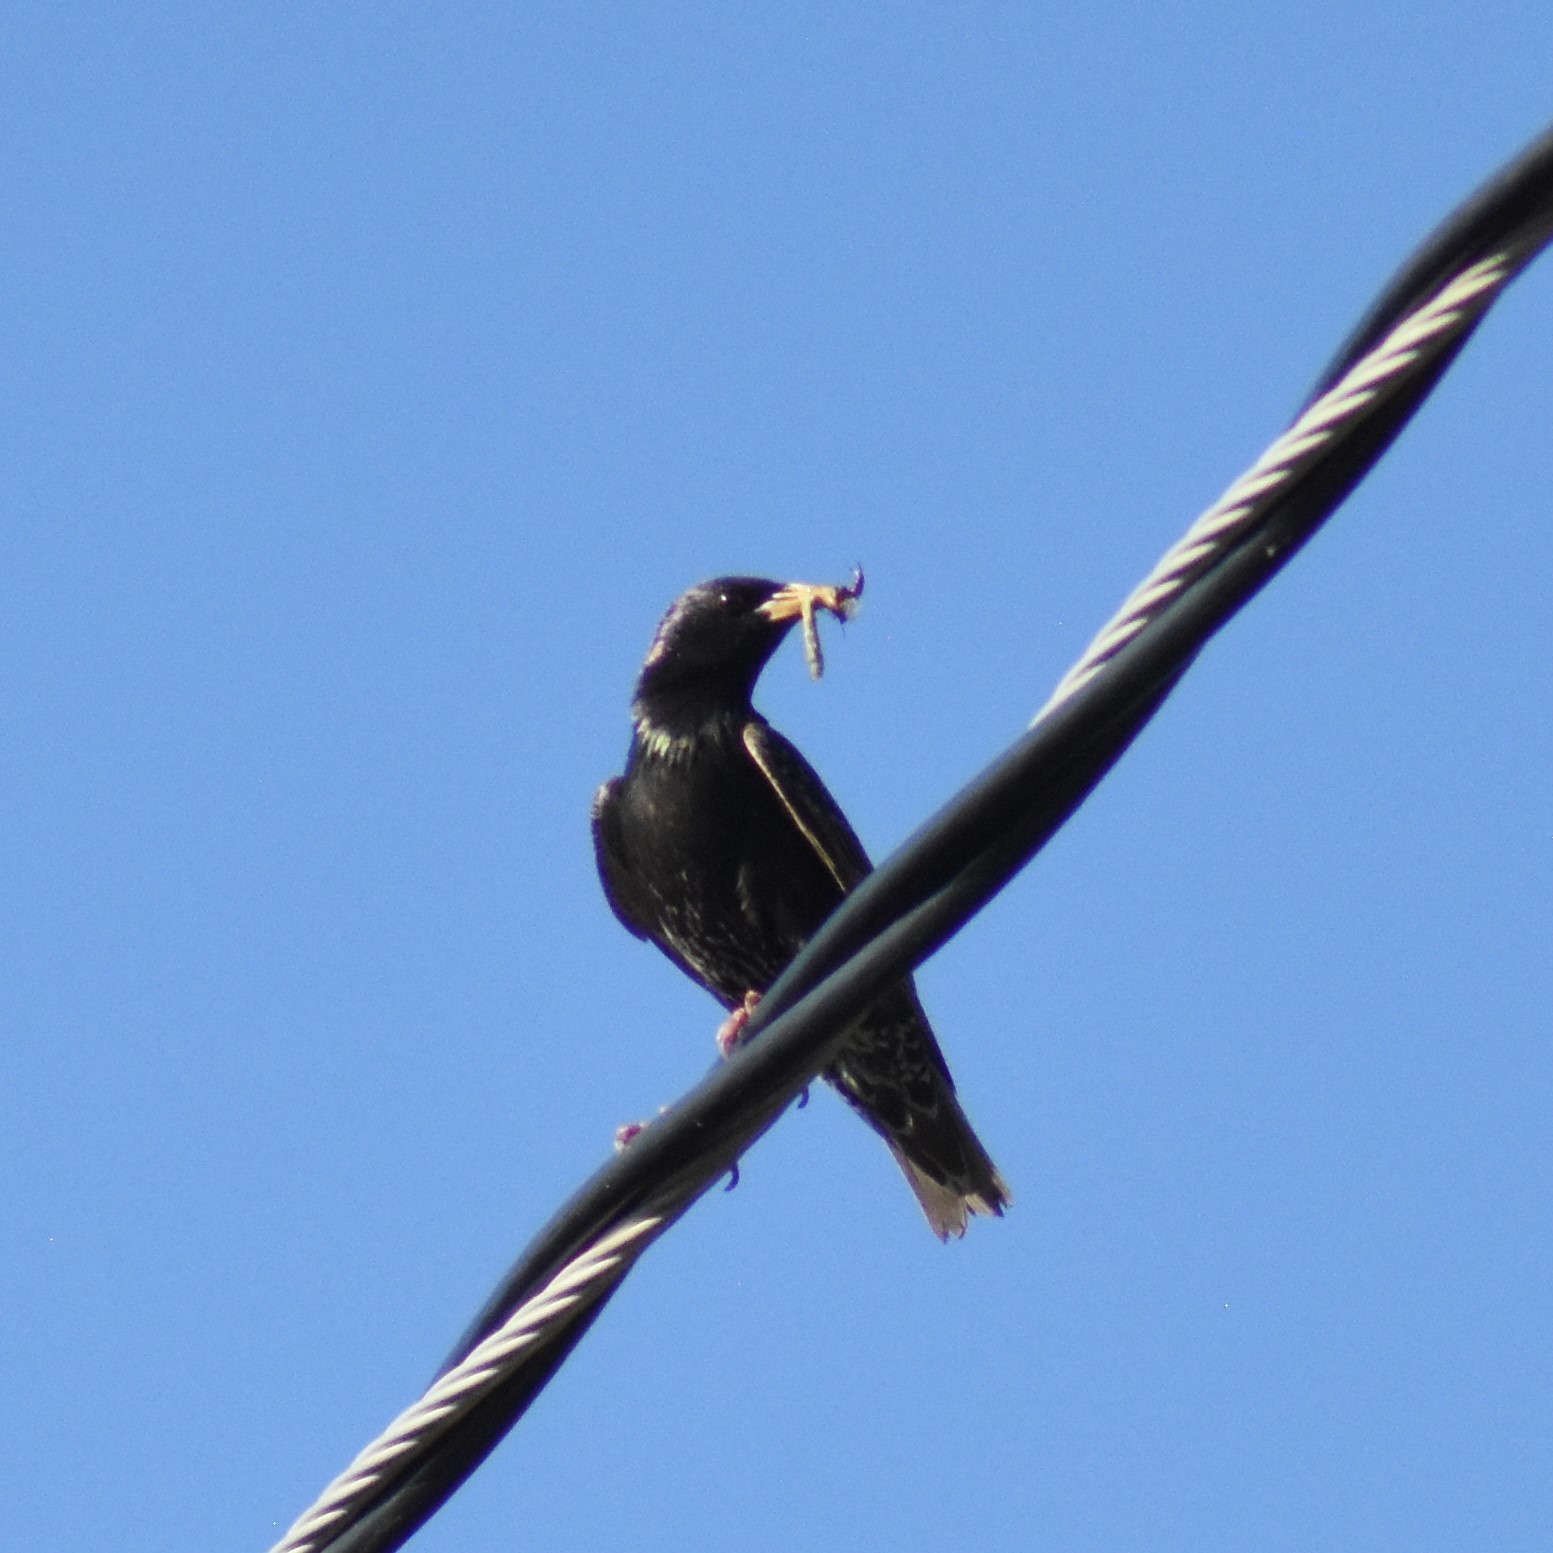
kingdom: Animalia
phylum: Chordata
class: Aves
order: Passeriformes
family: Sturnidae
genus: Sturnus
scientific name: Sturnus vulgaris
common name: Common starling
